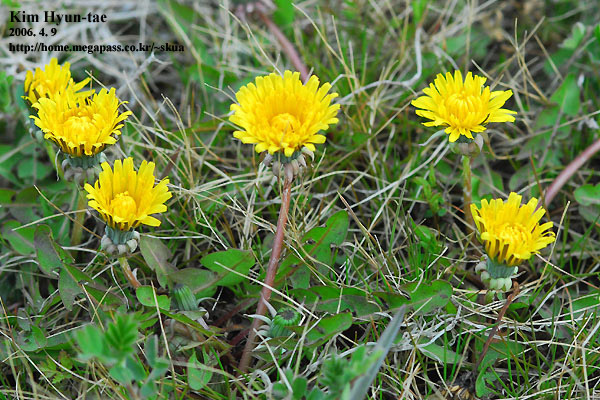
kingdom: Plantae
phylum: Tracheophyta
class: Magnoliopsida
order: Asterales
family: Asteraceae
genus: Taraxacum
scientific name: Taraxacum officinale
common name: Common dandelion
